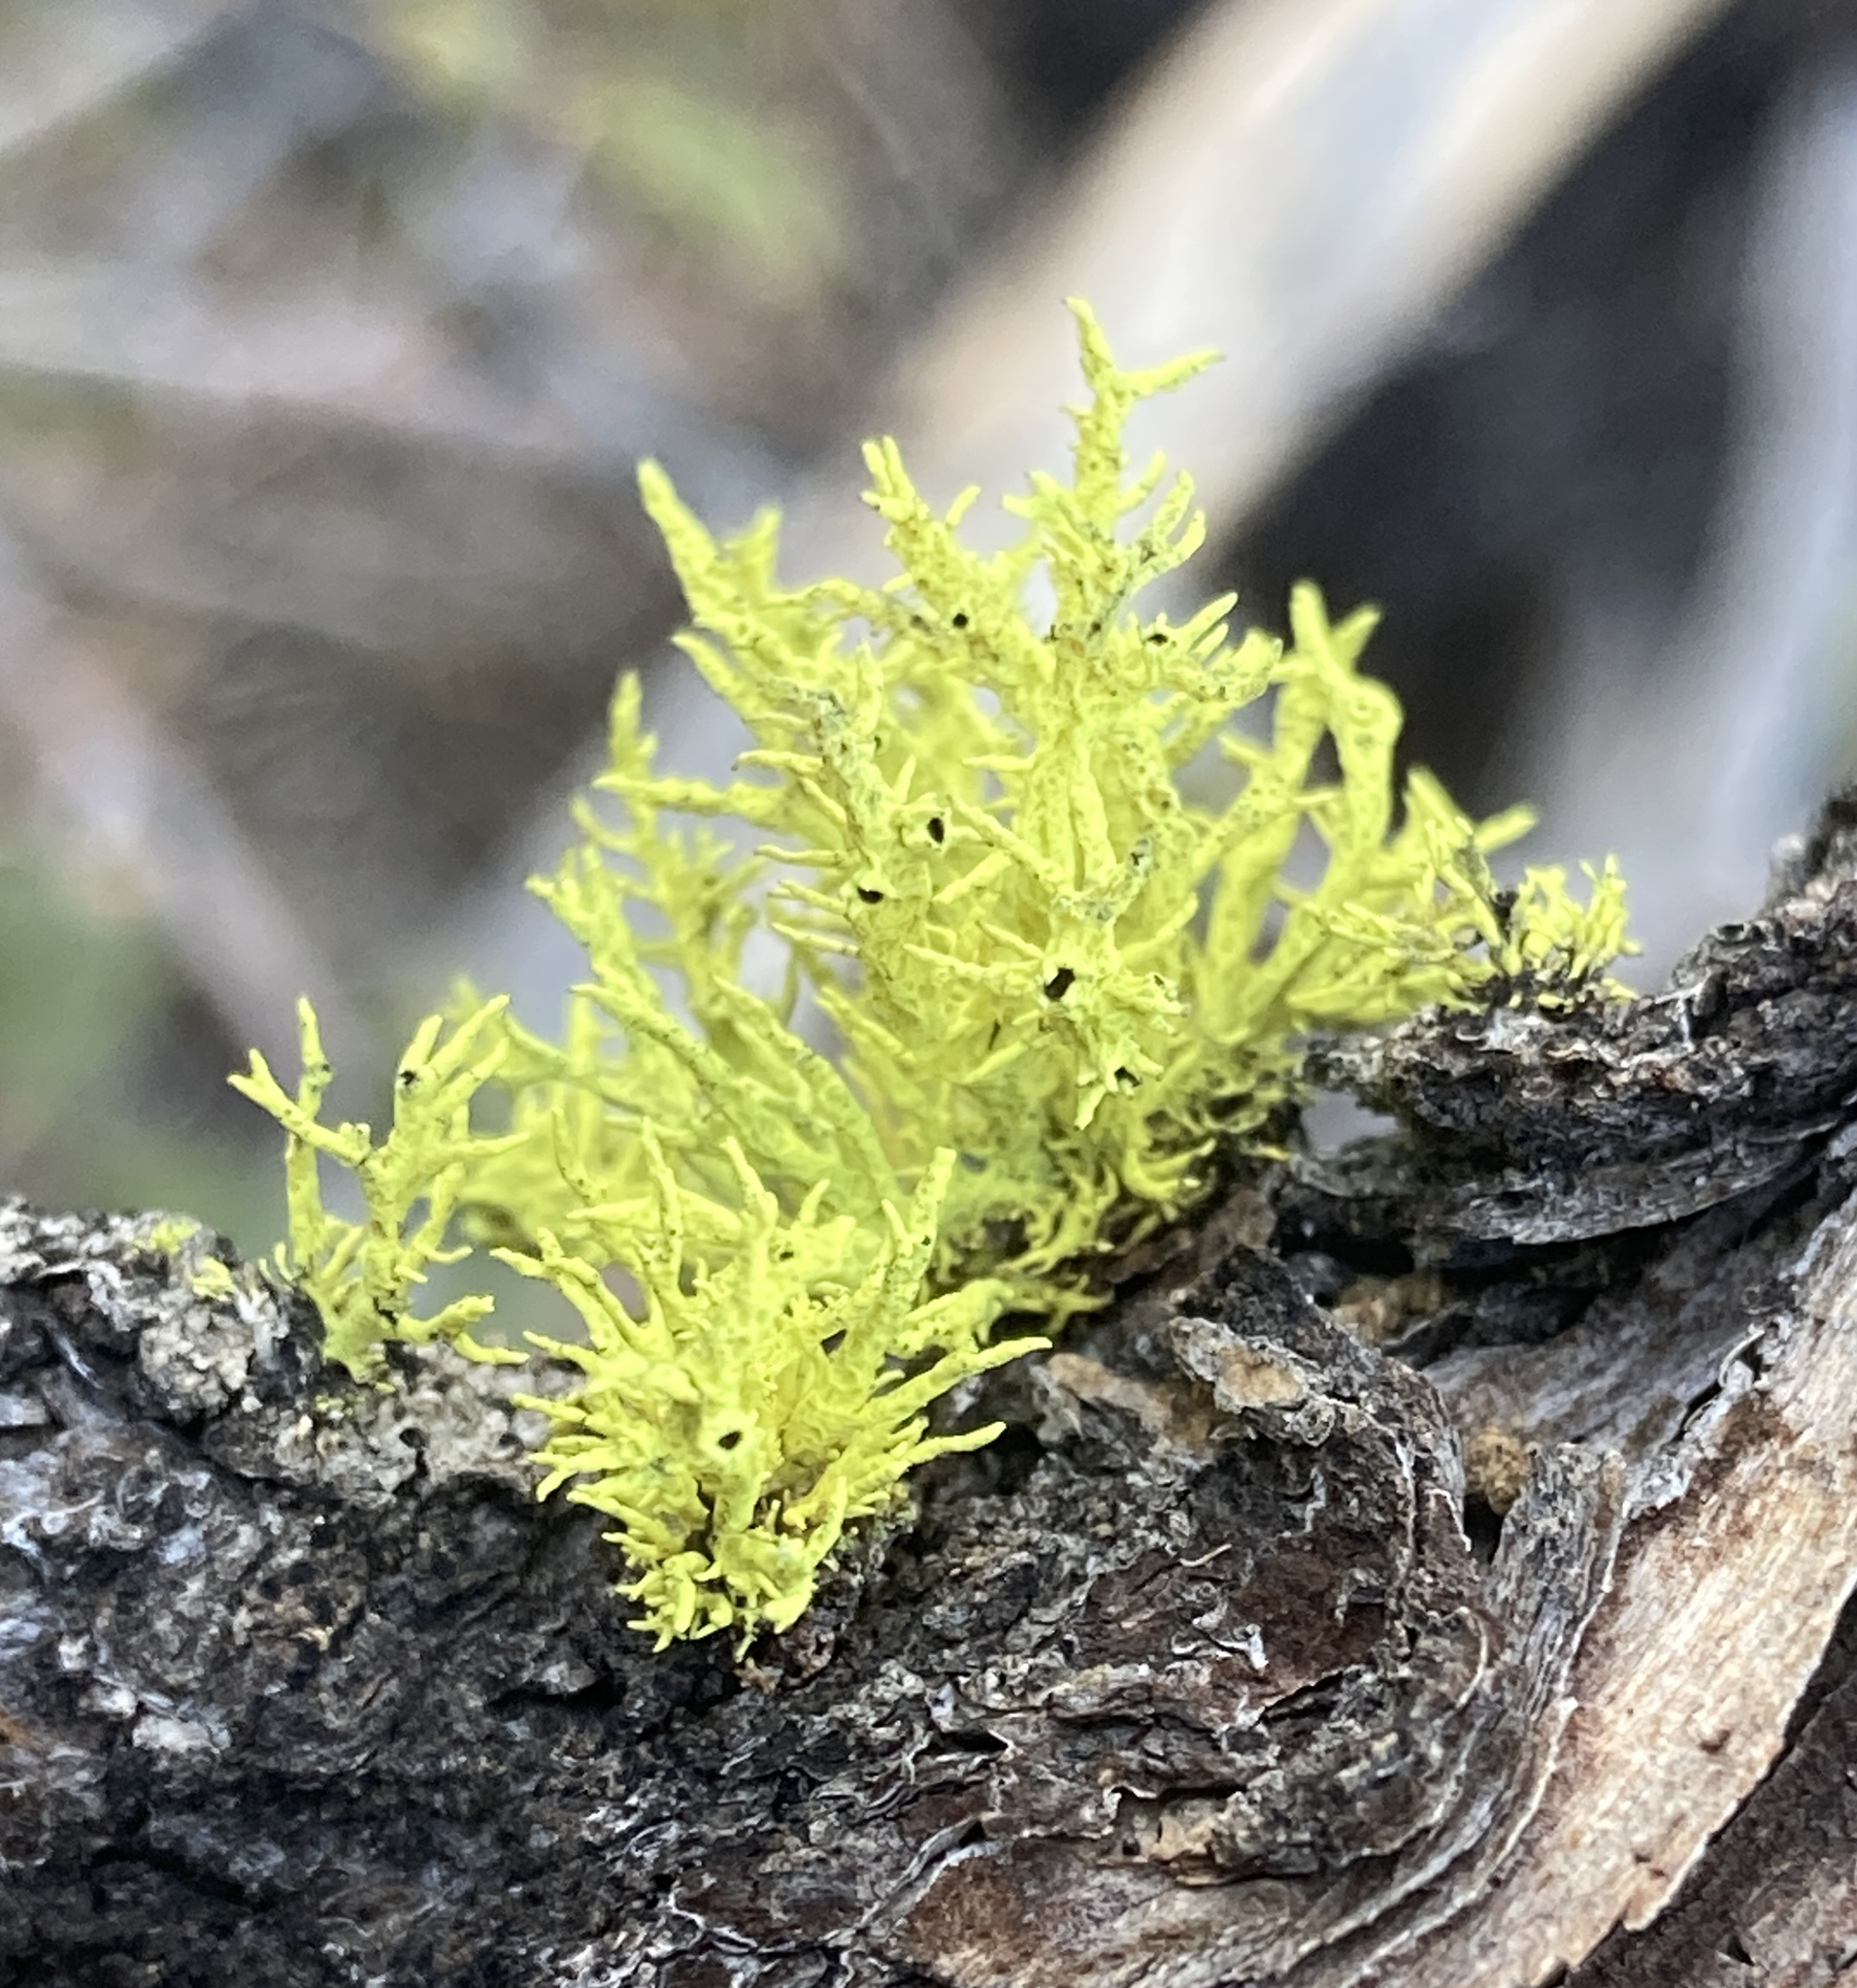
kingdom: Fungi
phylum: Ascomycota
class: Lecanoromycetes
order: Lecanorales
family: Parmeliaceae
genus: Letharia
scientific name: Letharia columbiana
